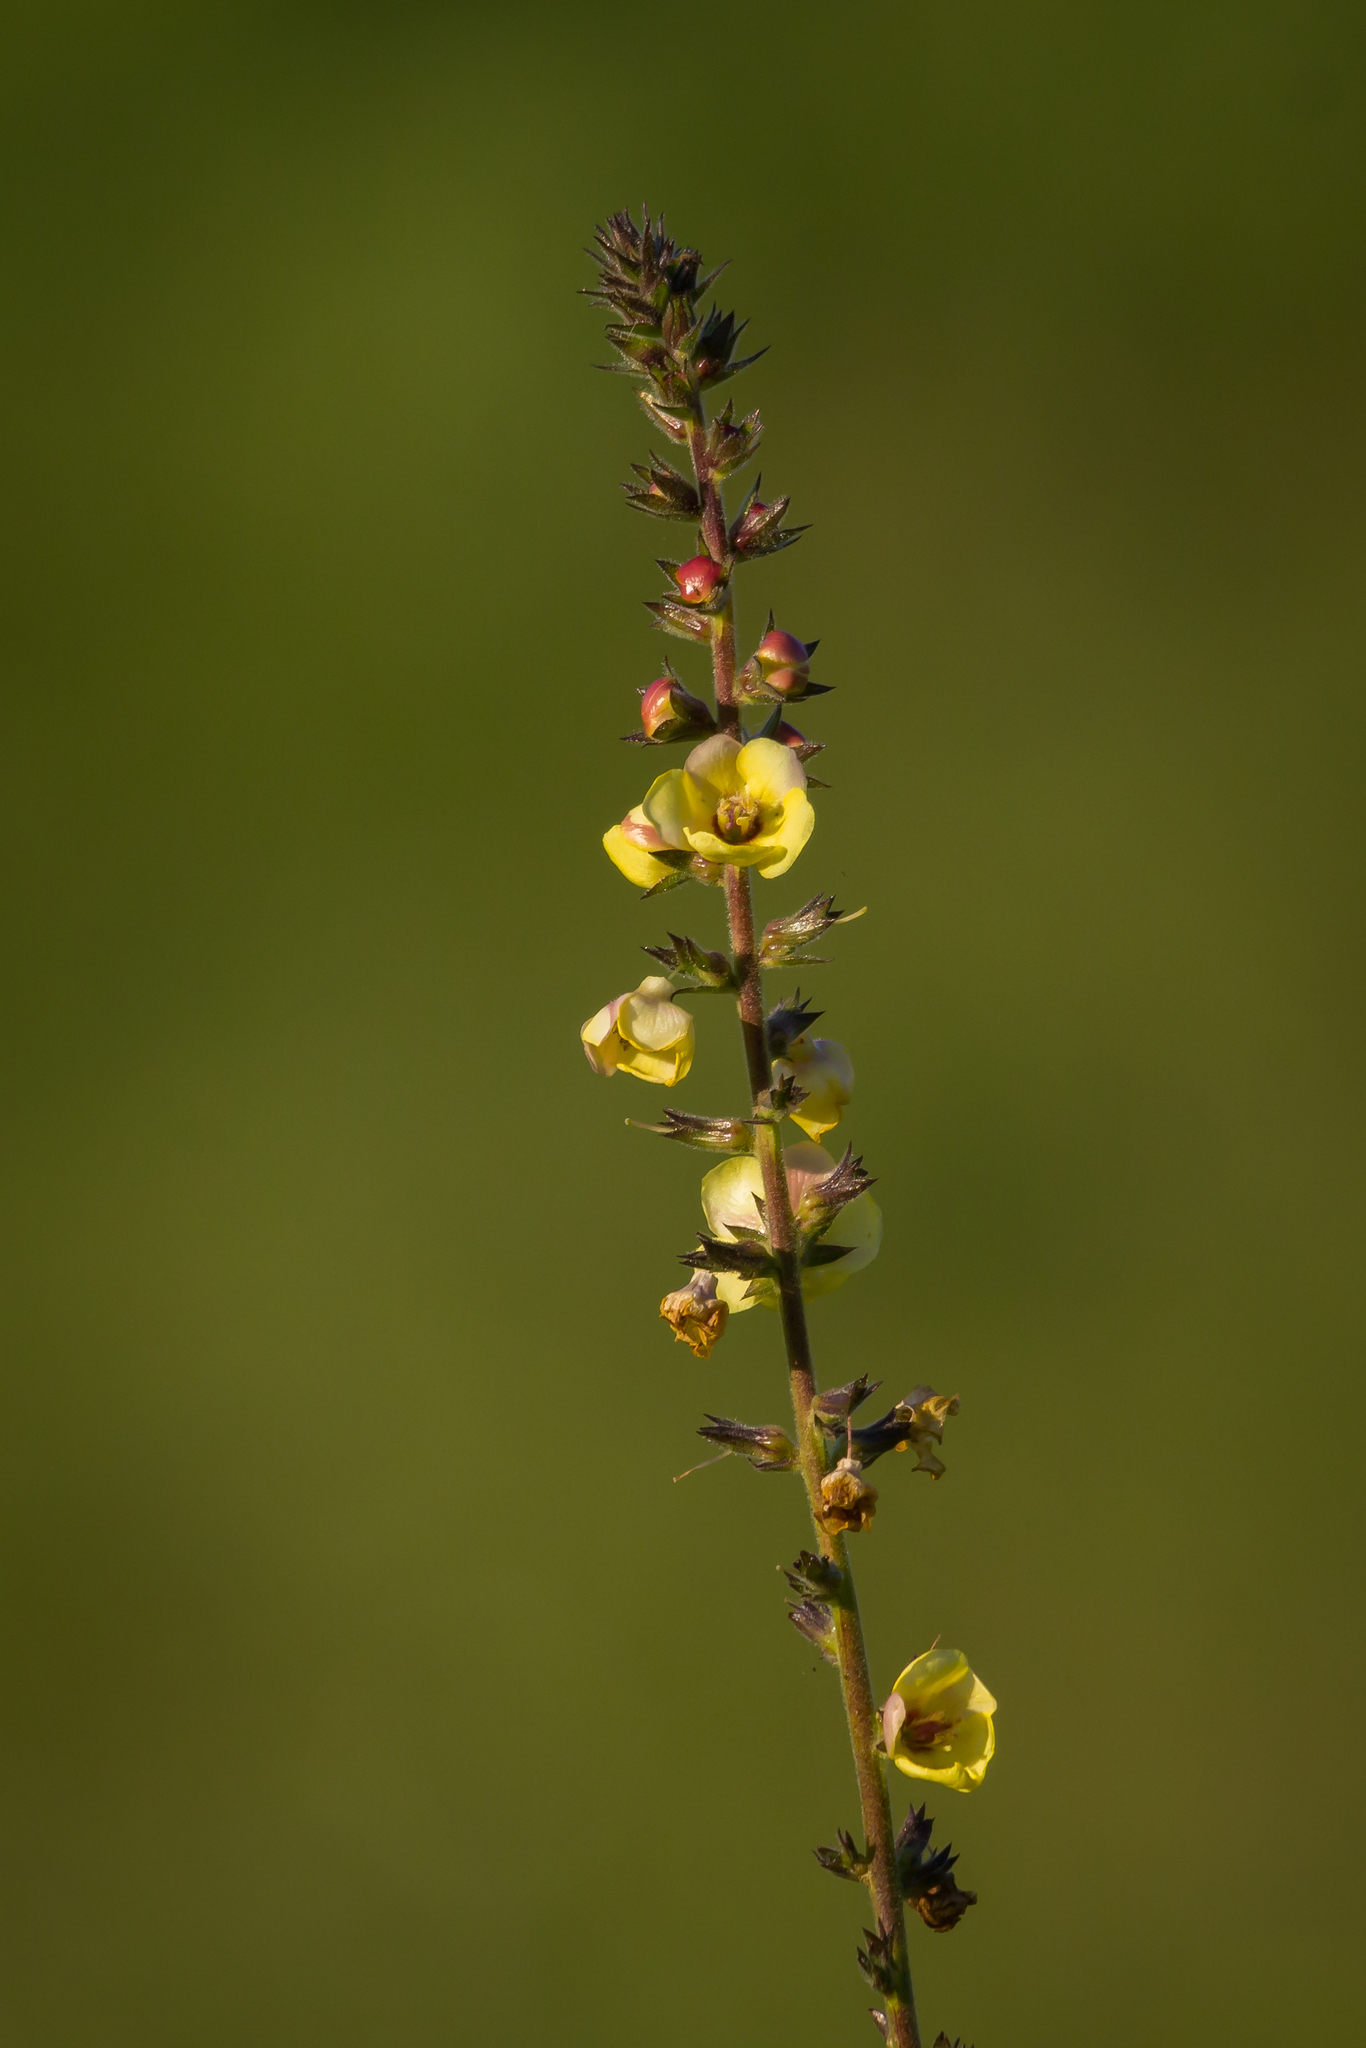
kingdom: Plantae
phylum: Tracheophyta
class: Magnoliopsida
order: Lamiales
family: Scrophulariaceae
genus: Verbascum
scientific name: Verbascum virgatum
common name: Twiggy mullein
